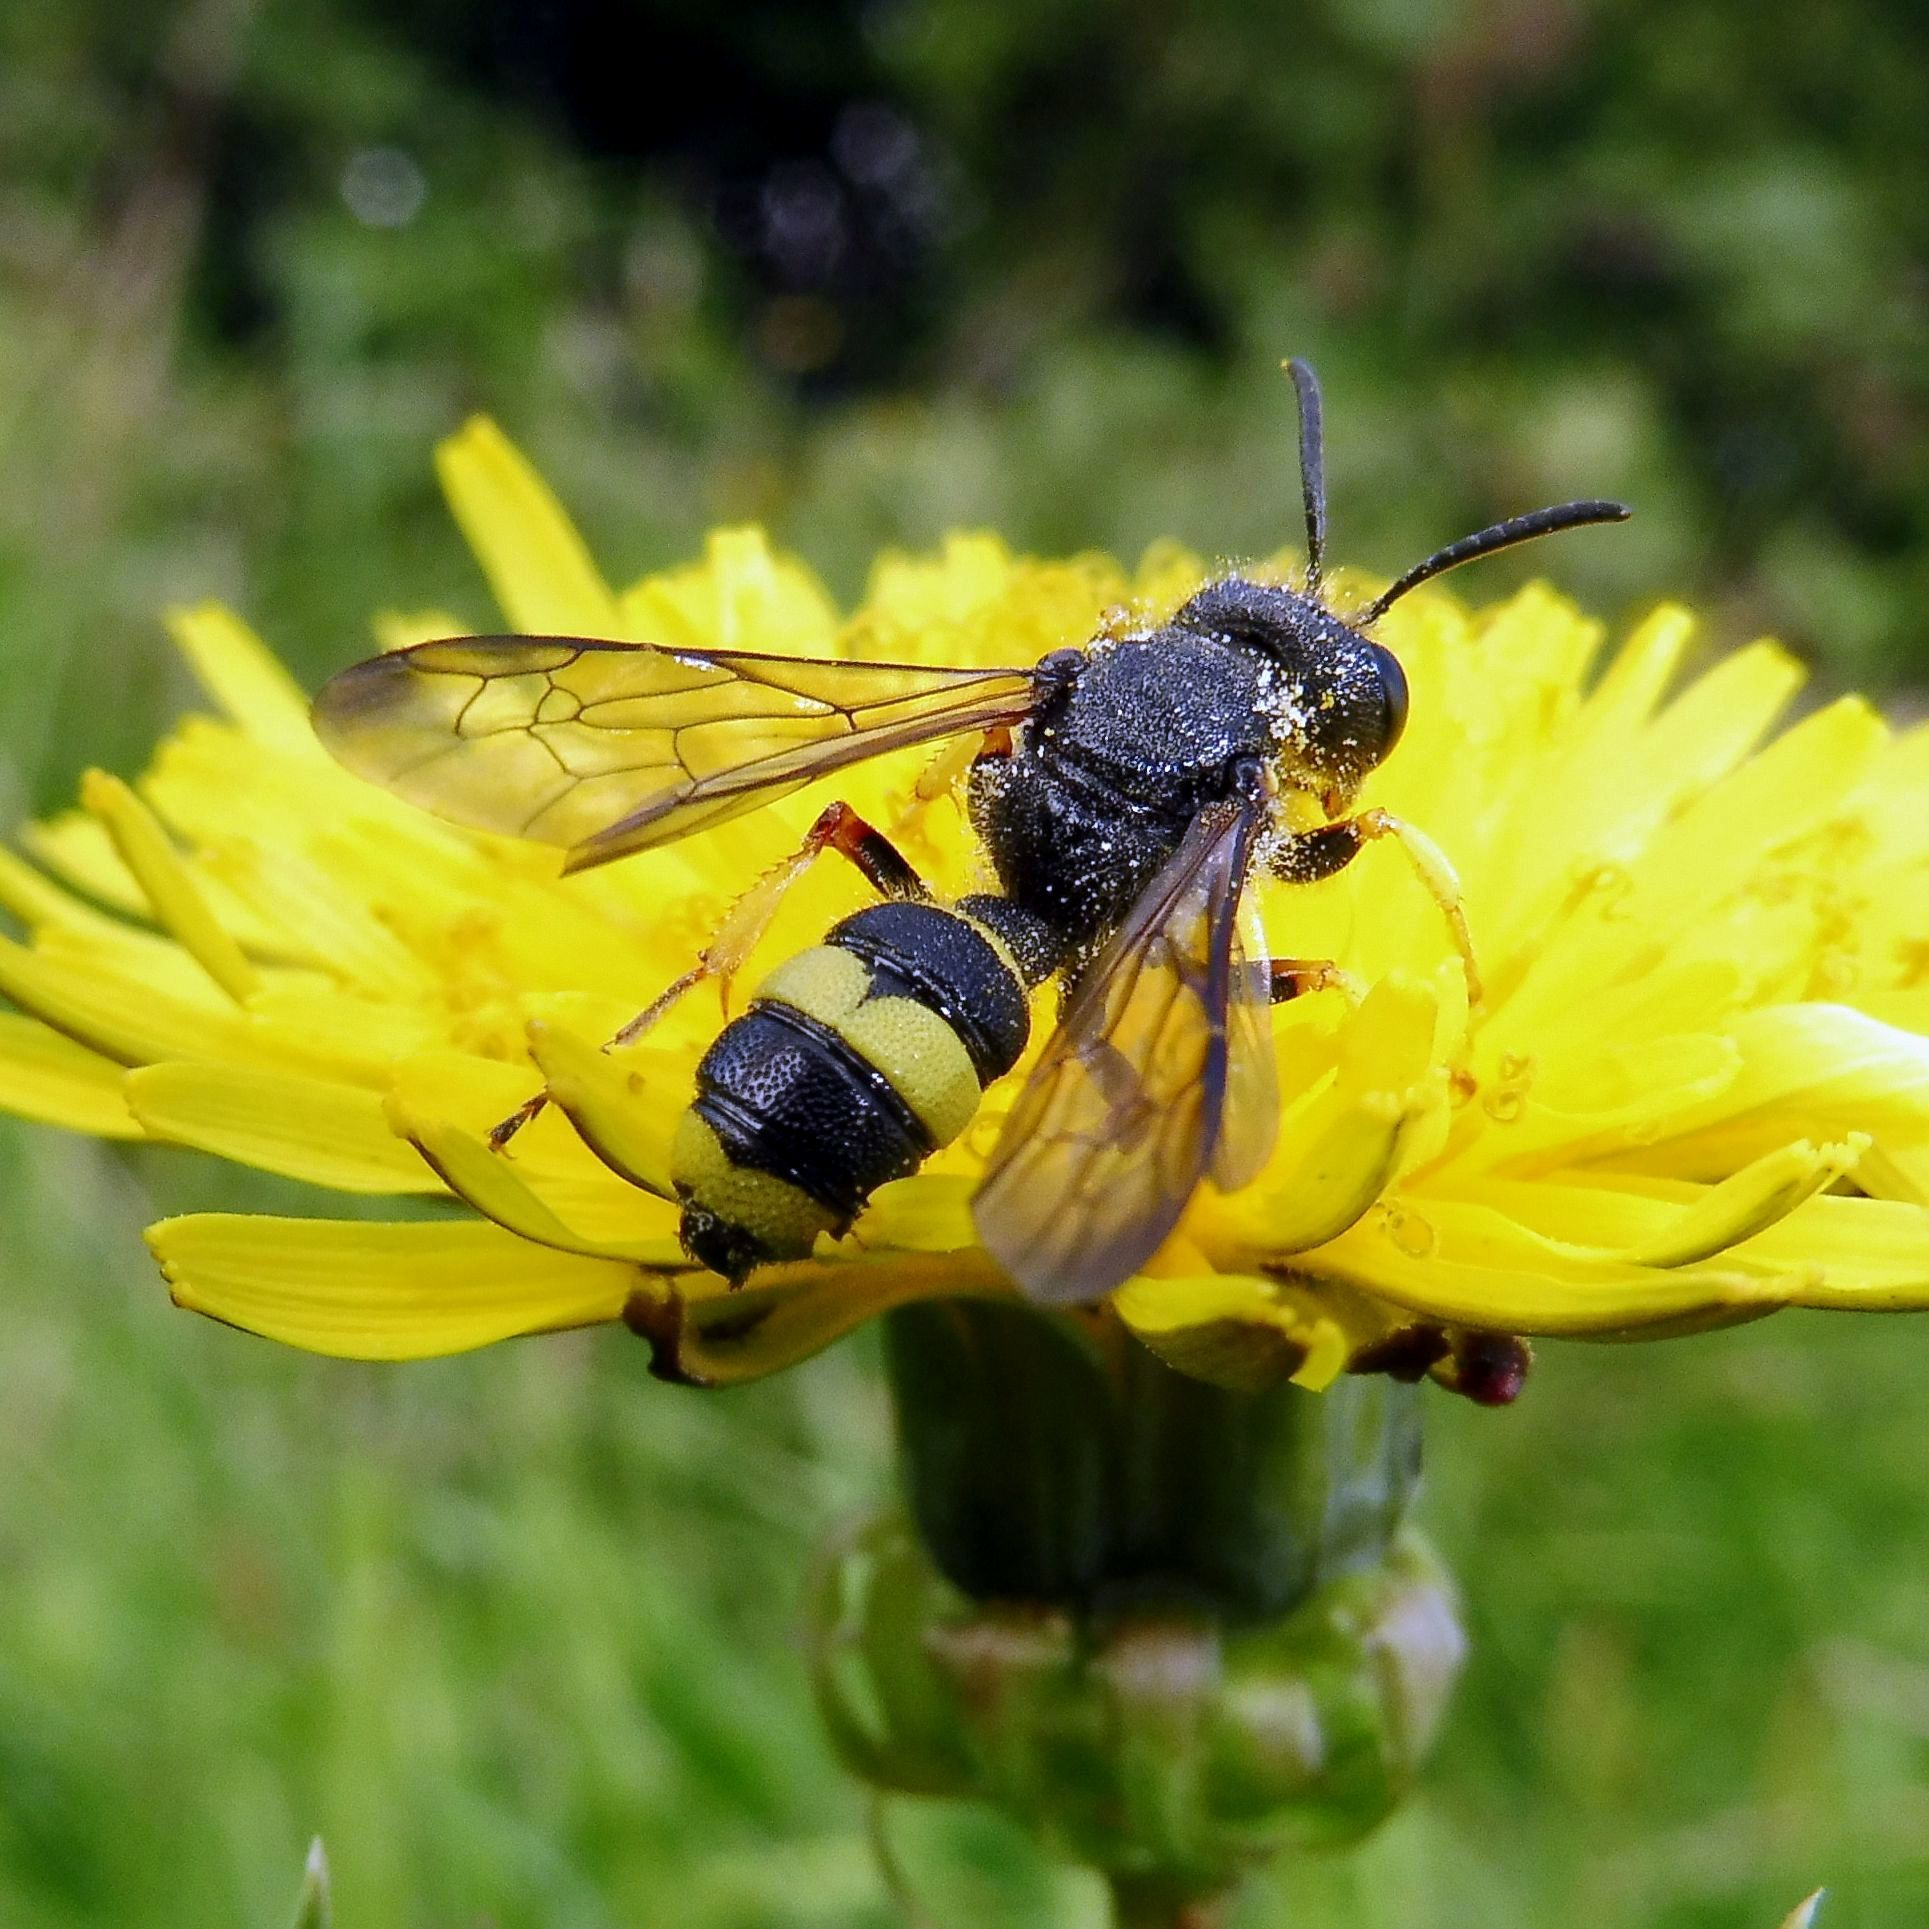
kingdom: Animalia
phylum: Arthropoda
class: Insecta
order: Hymenoptera
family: Crabronidae
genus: Cerceris
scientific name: Cerceris rybyensis
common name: Ornate tailed digger wasp
